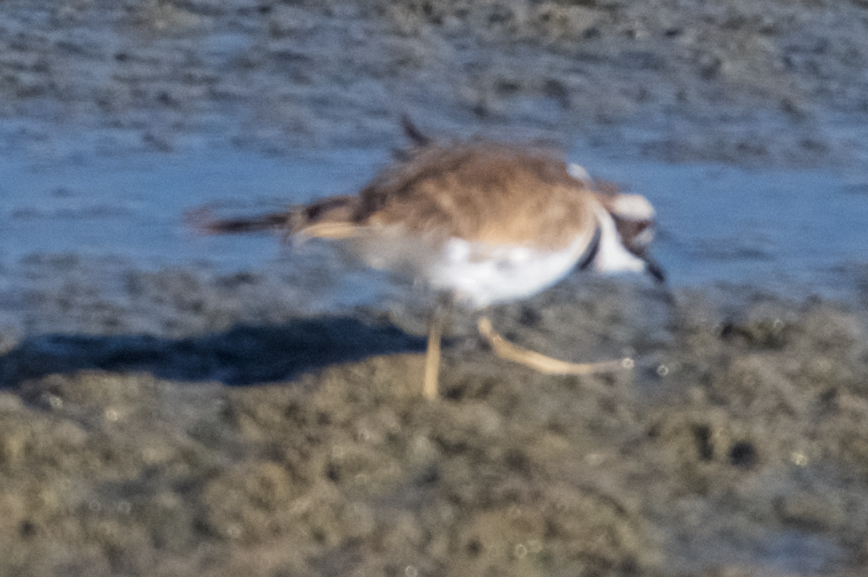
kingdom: Animalia
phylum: Chordata
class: Aves
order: Charadriiformes
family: Charadriidae
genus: Charadrius
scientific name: Charadrius vociferus
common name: Killdeer
